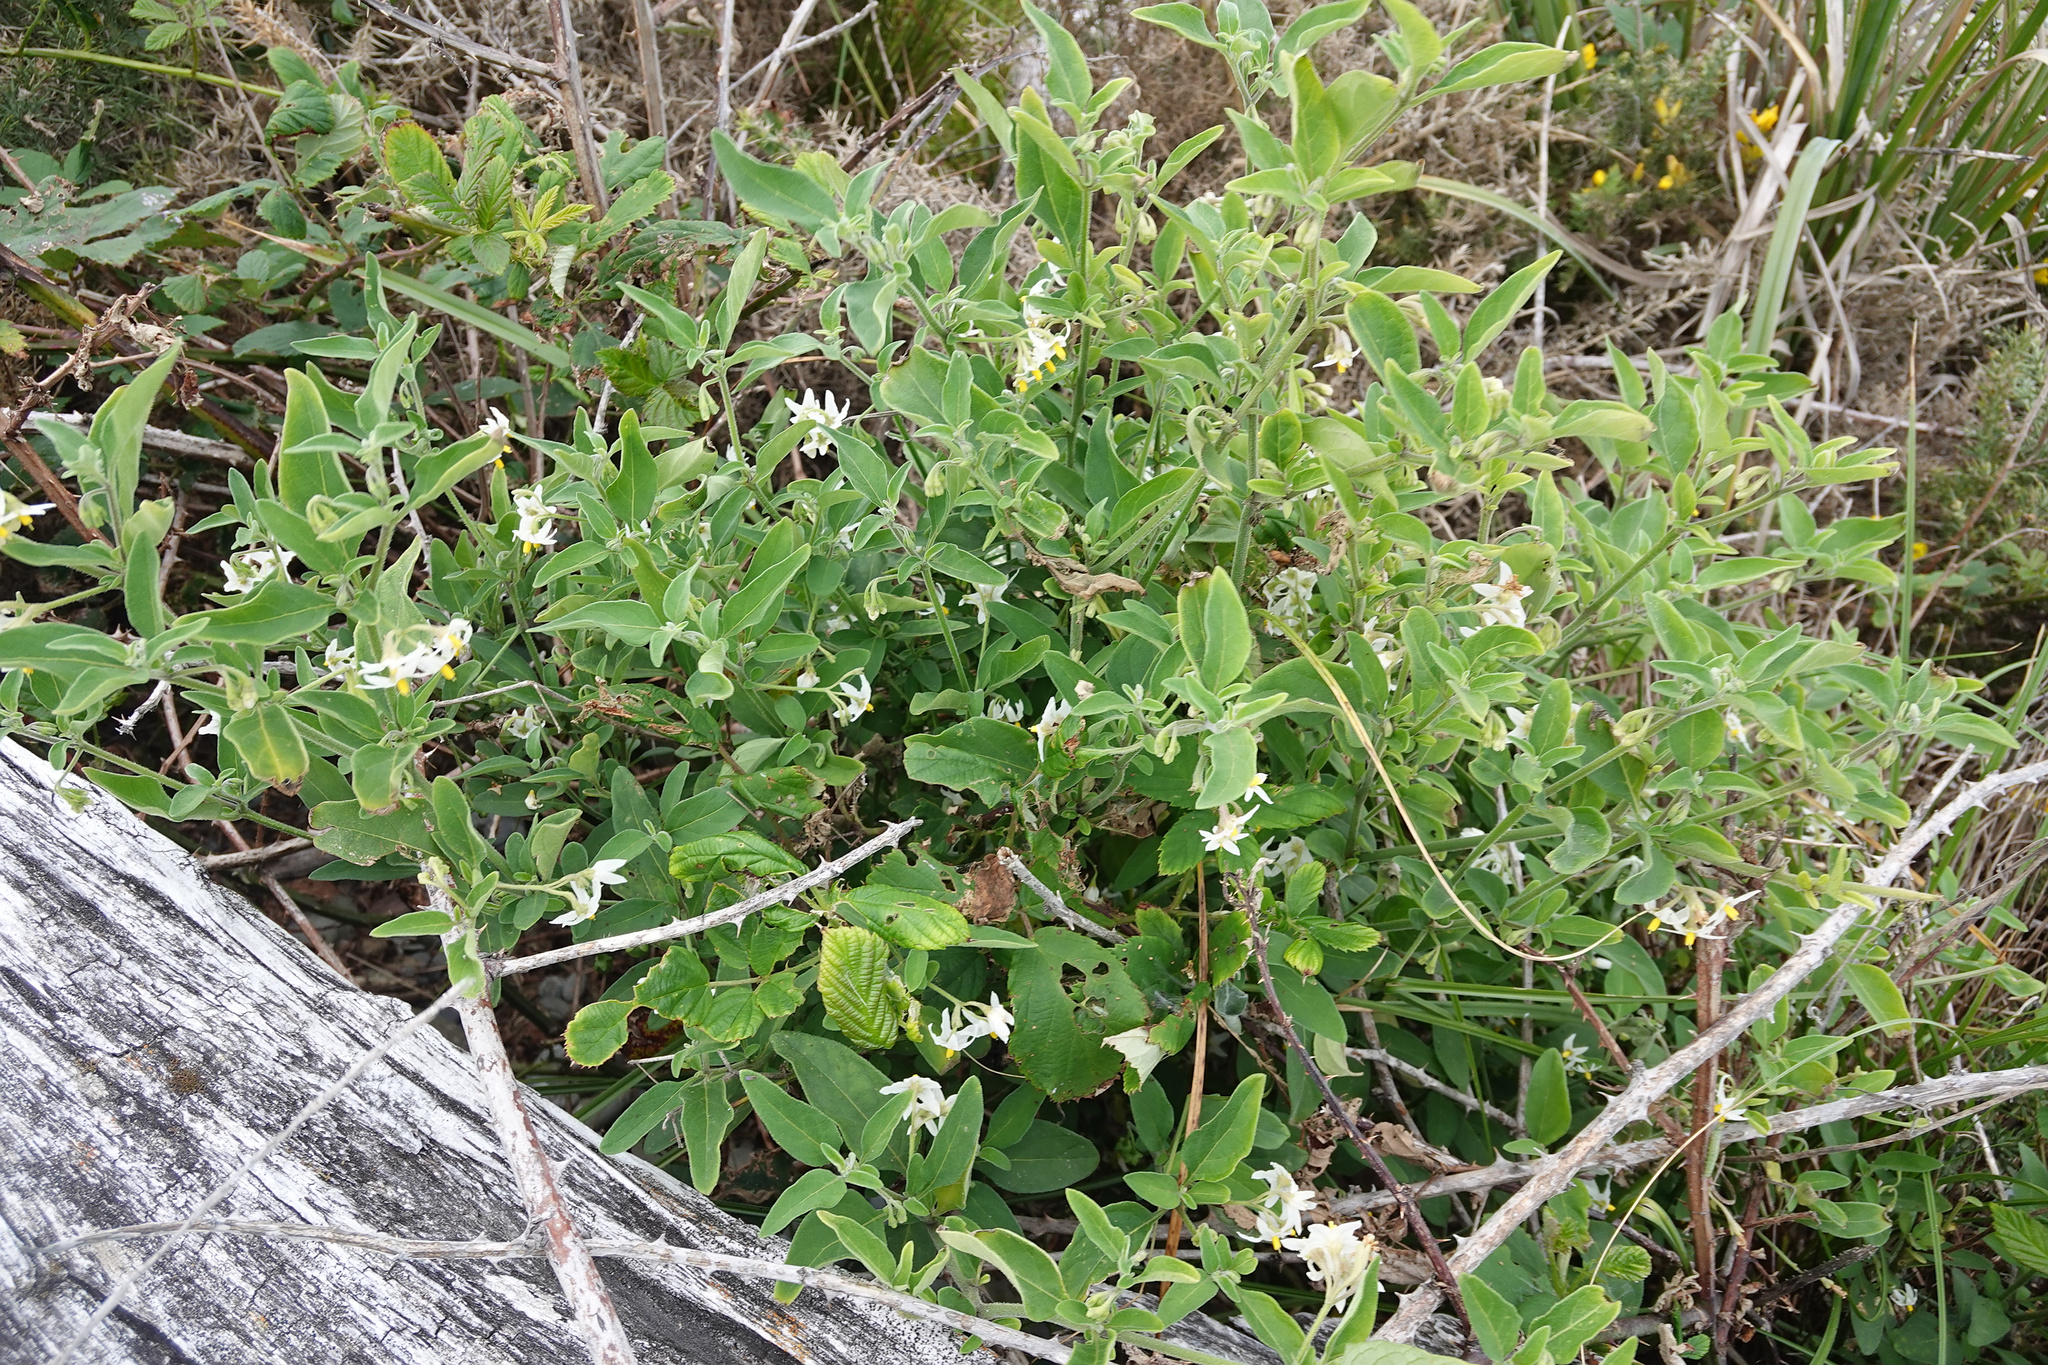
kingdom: Plantae
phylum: Tracheophyta
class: Magnoliopsida
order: Solanales
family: Solanaceae
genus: Solanum
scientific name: Solanum chenopodioides
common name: Tall nightshade
